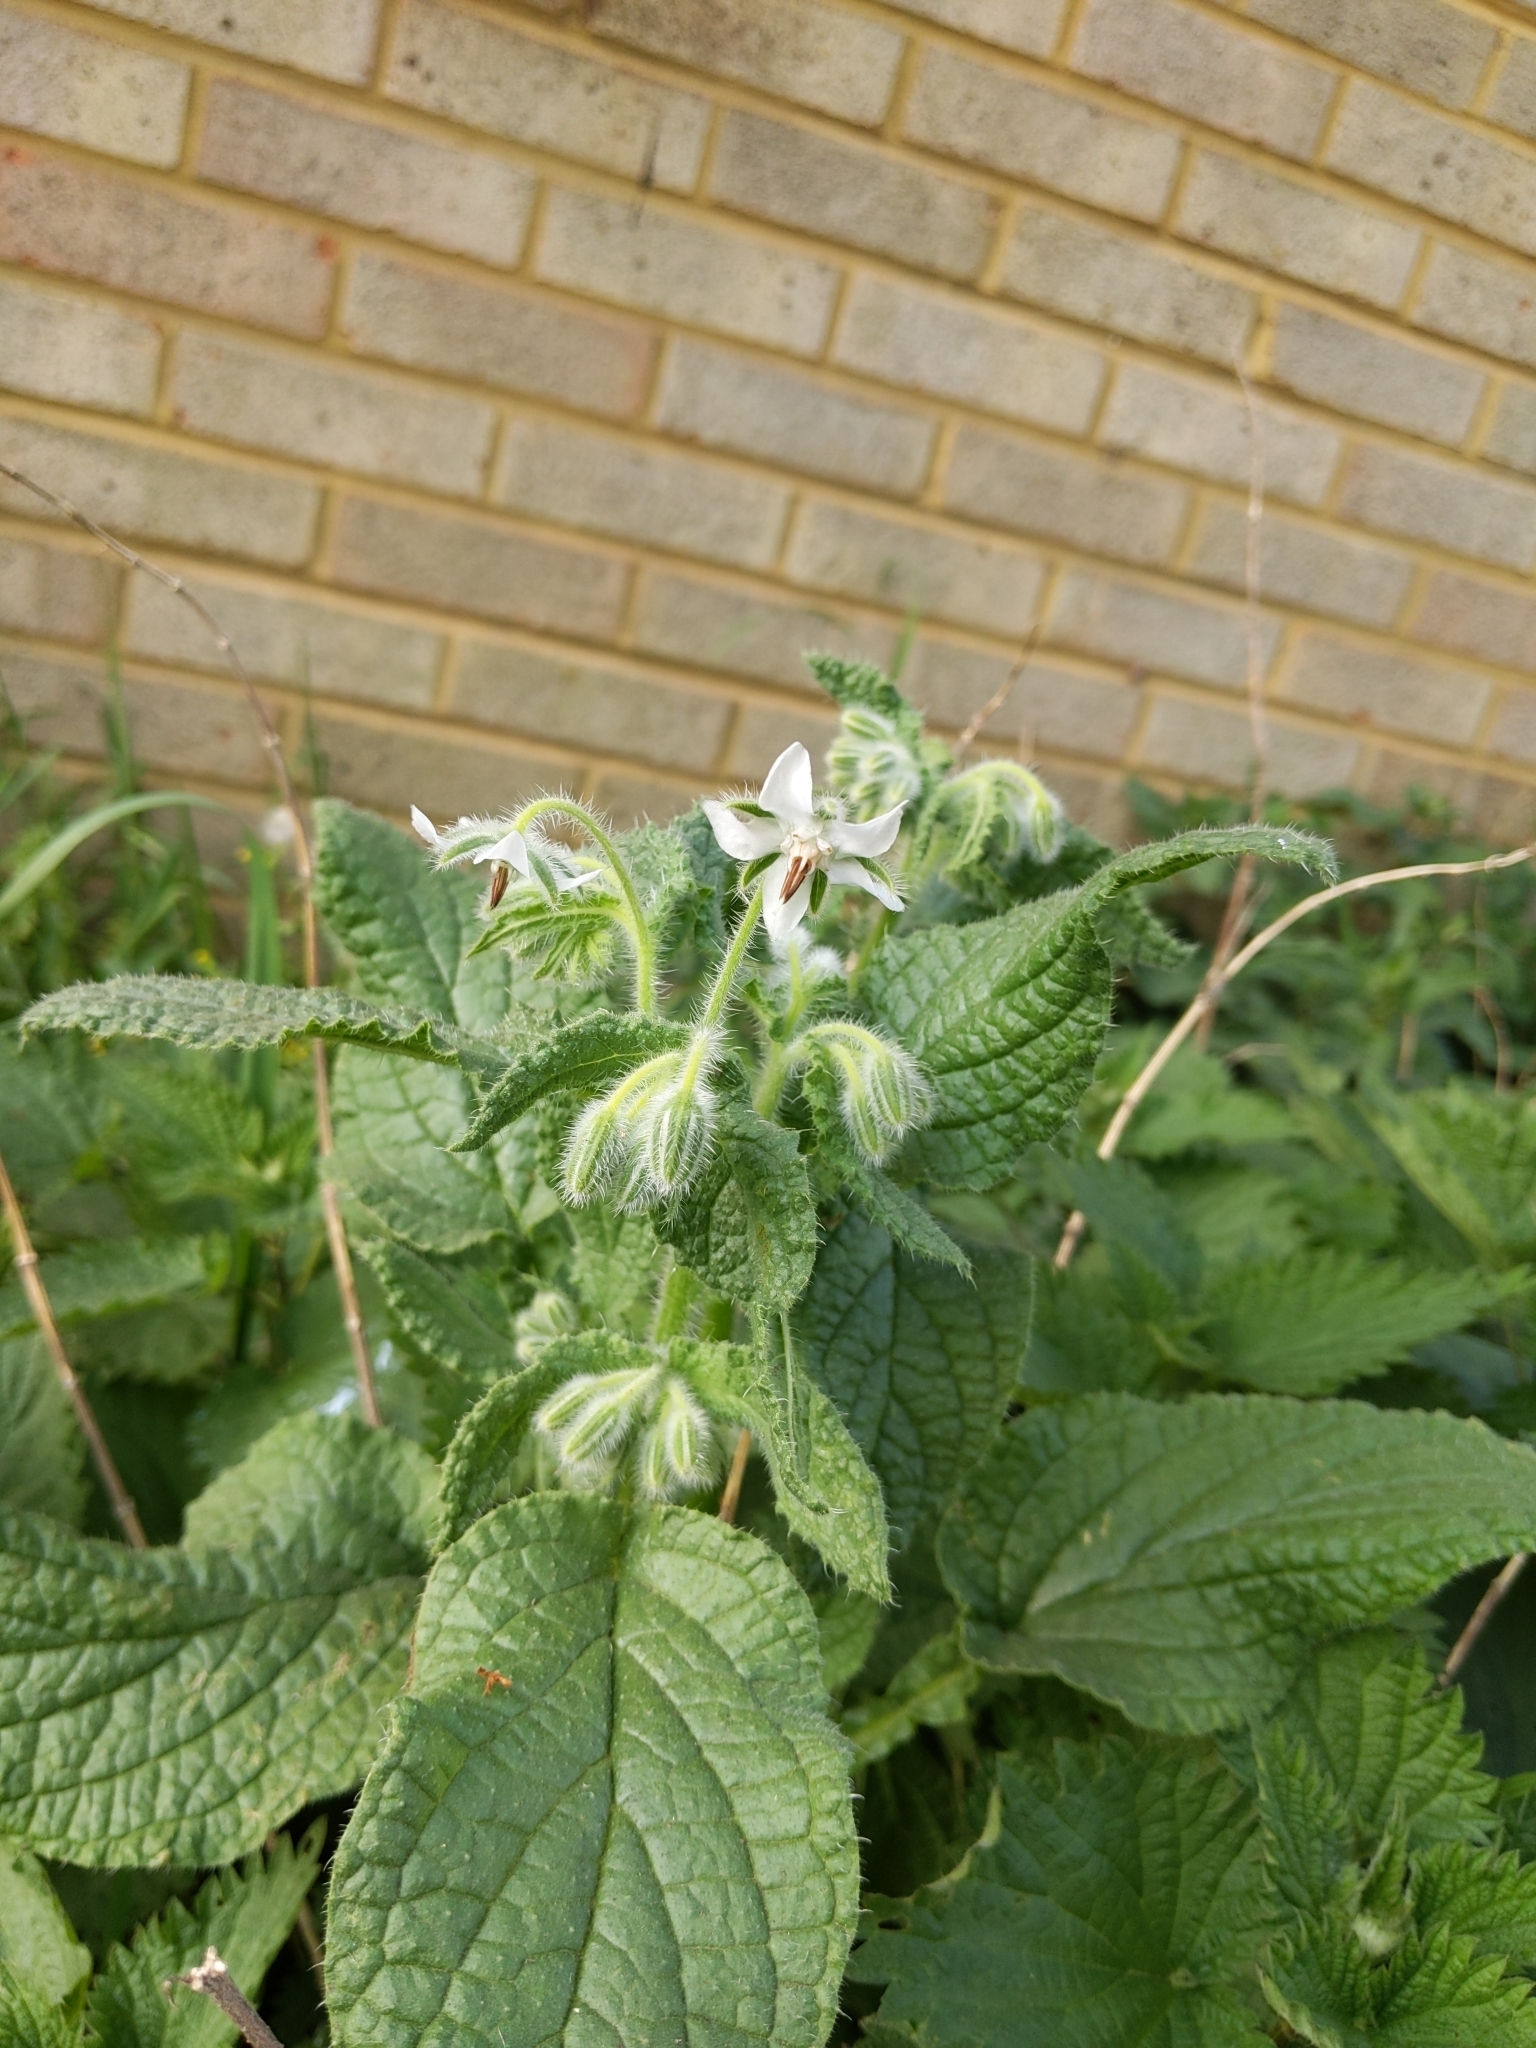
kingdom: Plantae
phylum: Tracheophyta
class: Magnoliopsida
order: Boraginales
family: Boraginaceae
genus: Borago
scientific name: Borago officinalis
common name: Borage
